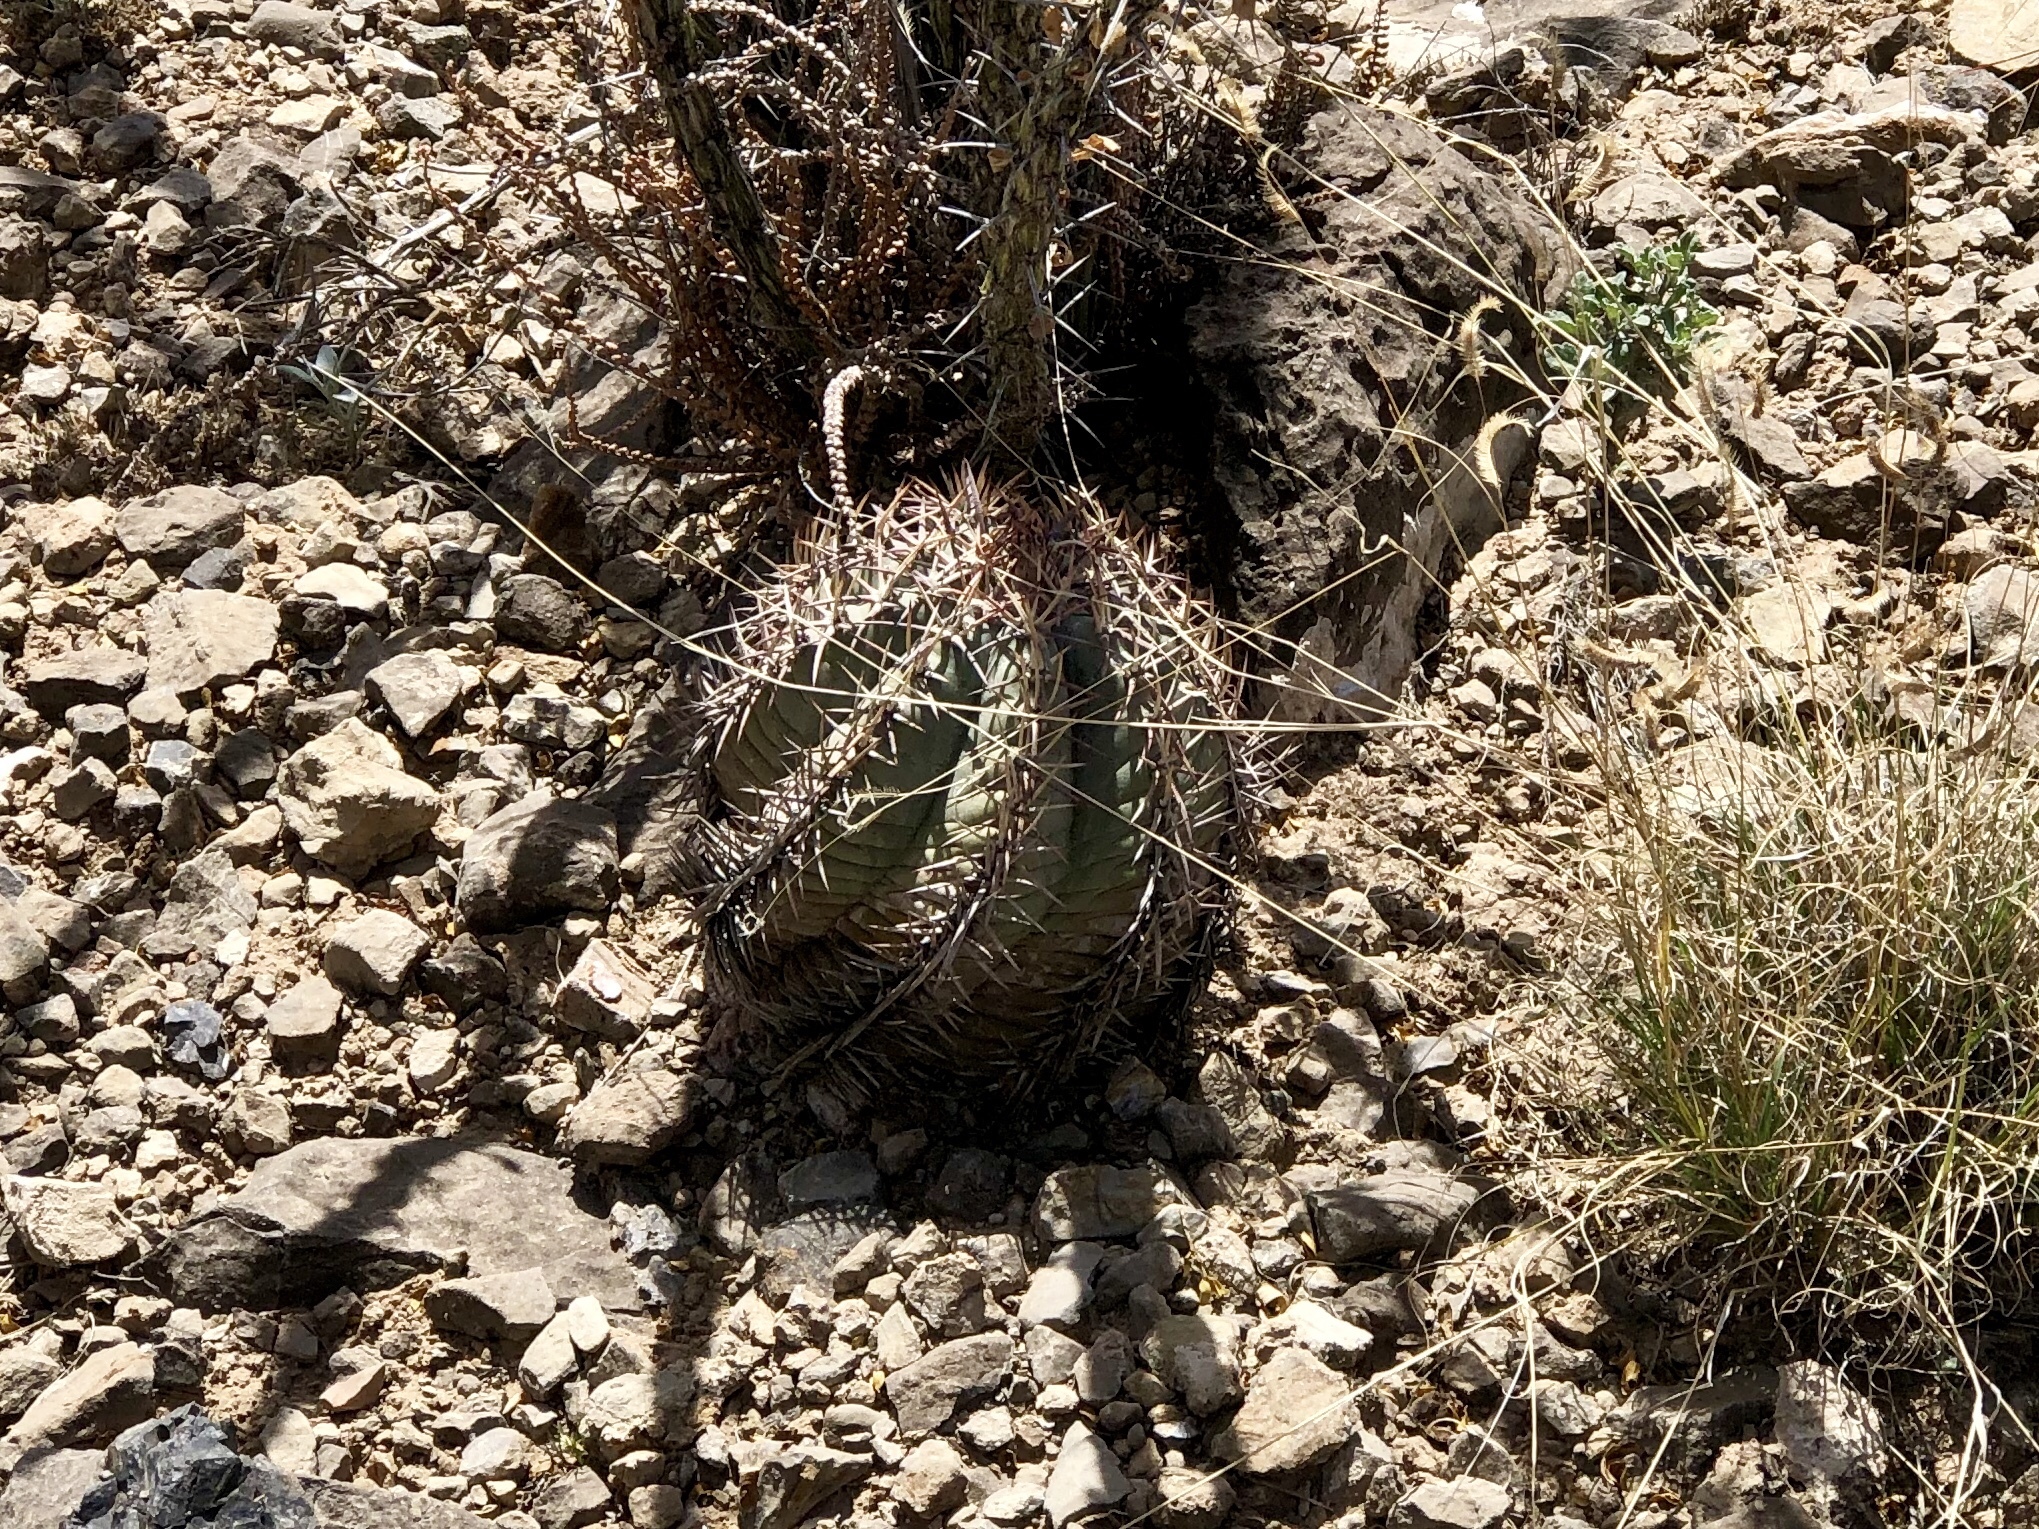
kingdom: Plantae
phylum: Tracheophyta
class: Magnoliopsida
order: Caryophyllales
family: Cactaceae
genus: Echinocactus
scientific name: Echinocactus horizonthalonius
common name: Devilshead
